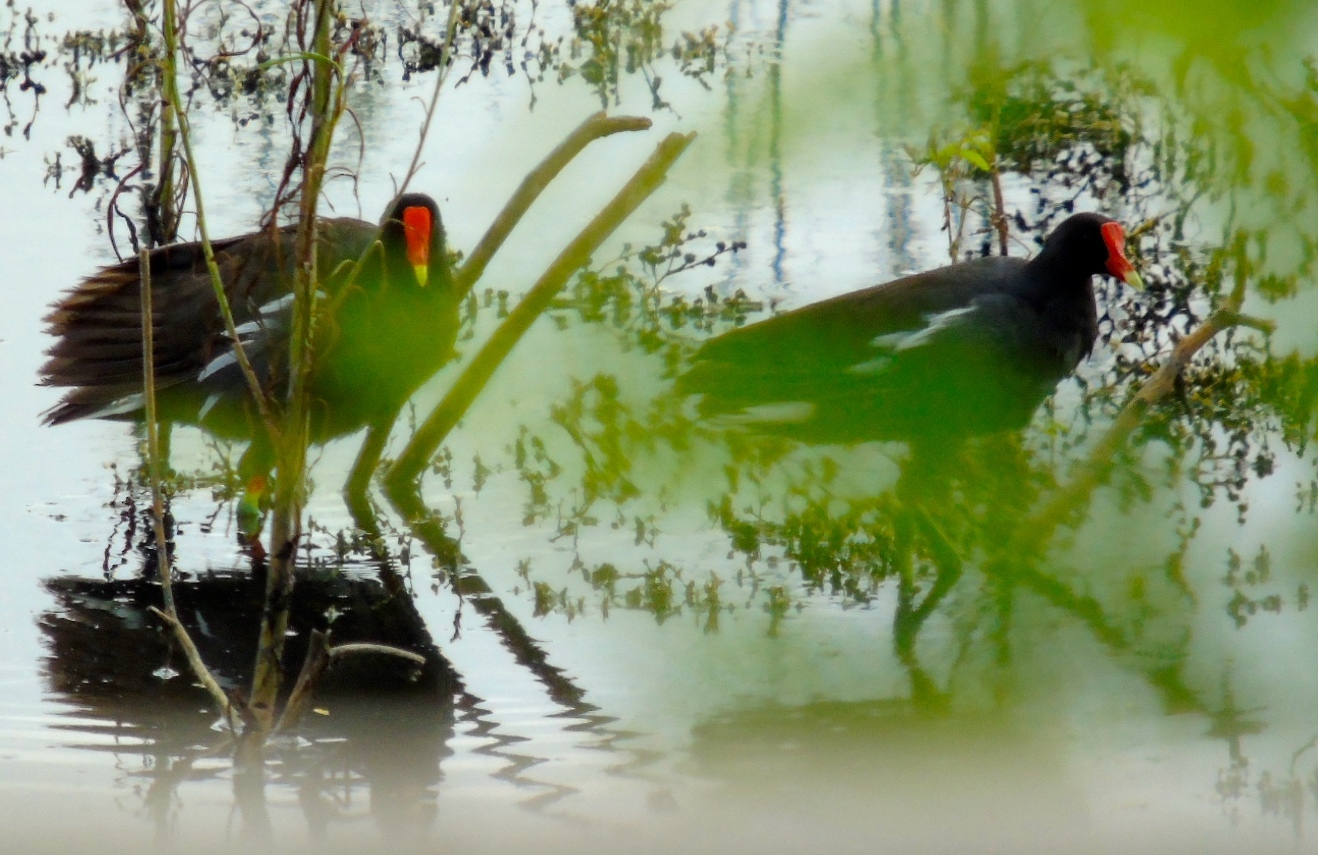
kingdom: Animalia
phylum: Chordata
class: Aves
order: Gruiformes
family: Rallidae
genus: Gallinula
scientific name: Gallinula chloropus
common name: Common moorhen
